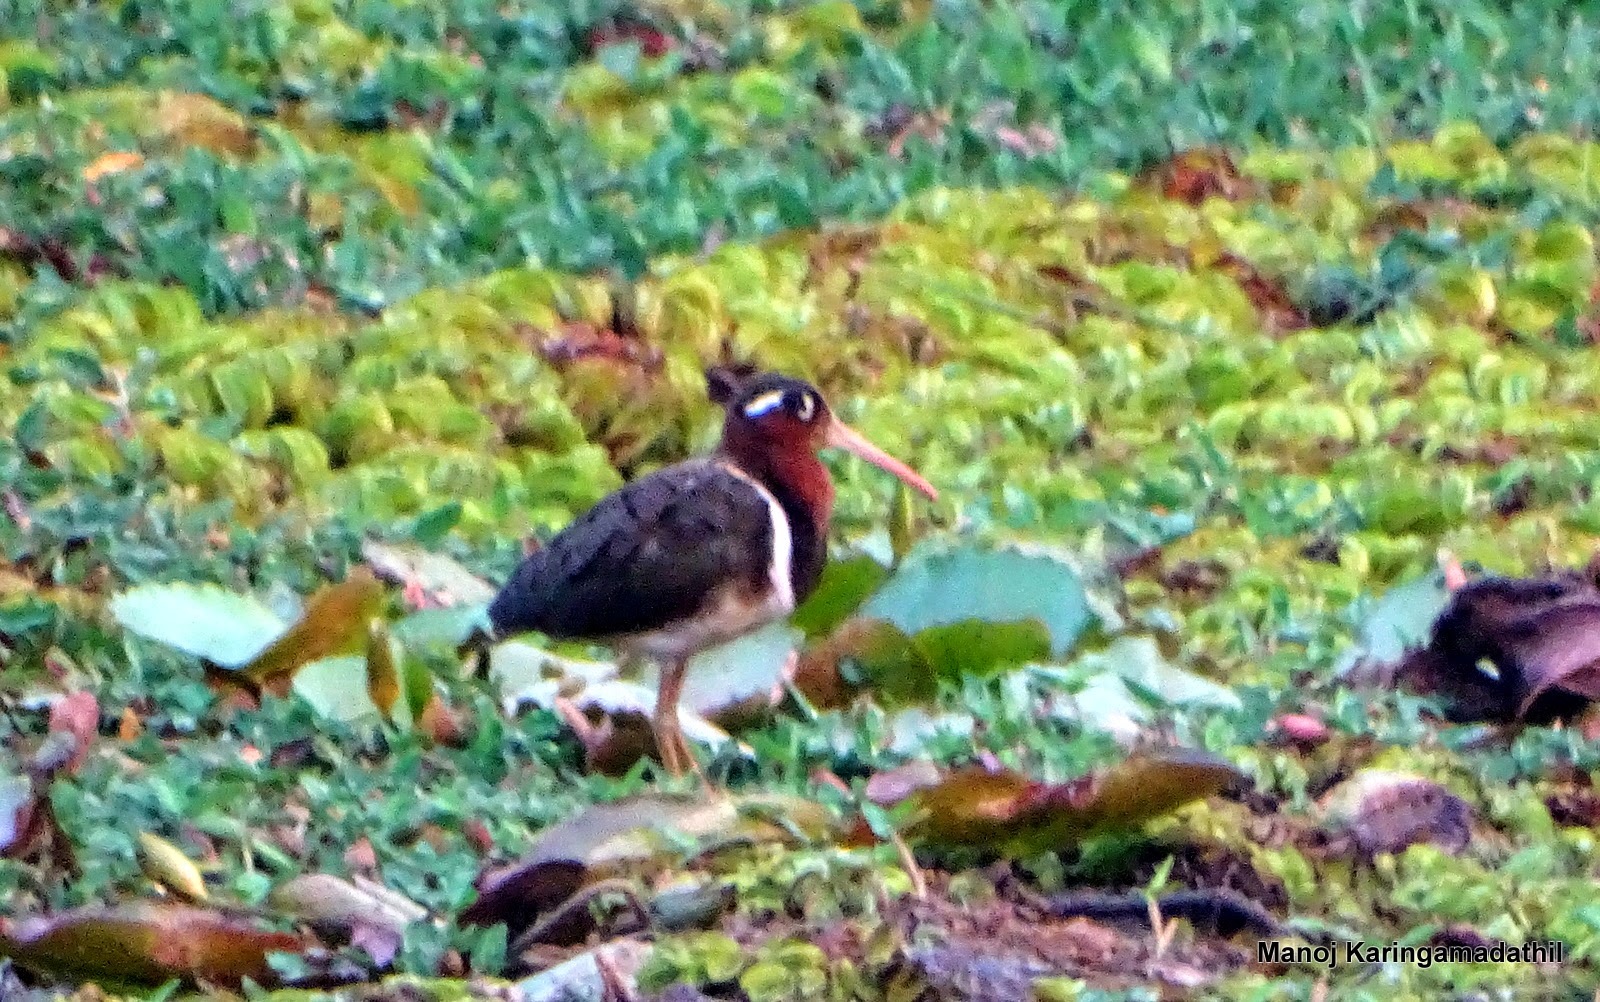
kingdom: Animalia
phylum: Chordata
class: Aves
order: Charadriiformes
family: Rostratulidae
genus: Rostratula
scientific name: Rostratula benghalensis
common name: Greater painted-snipe
